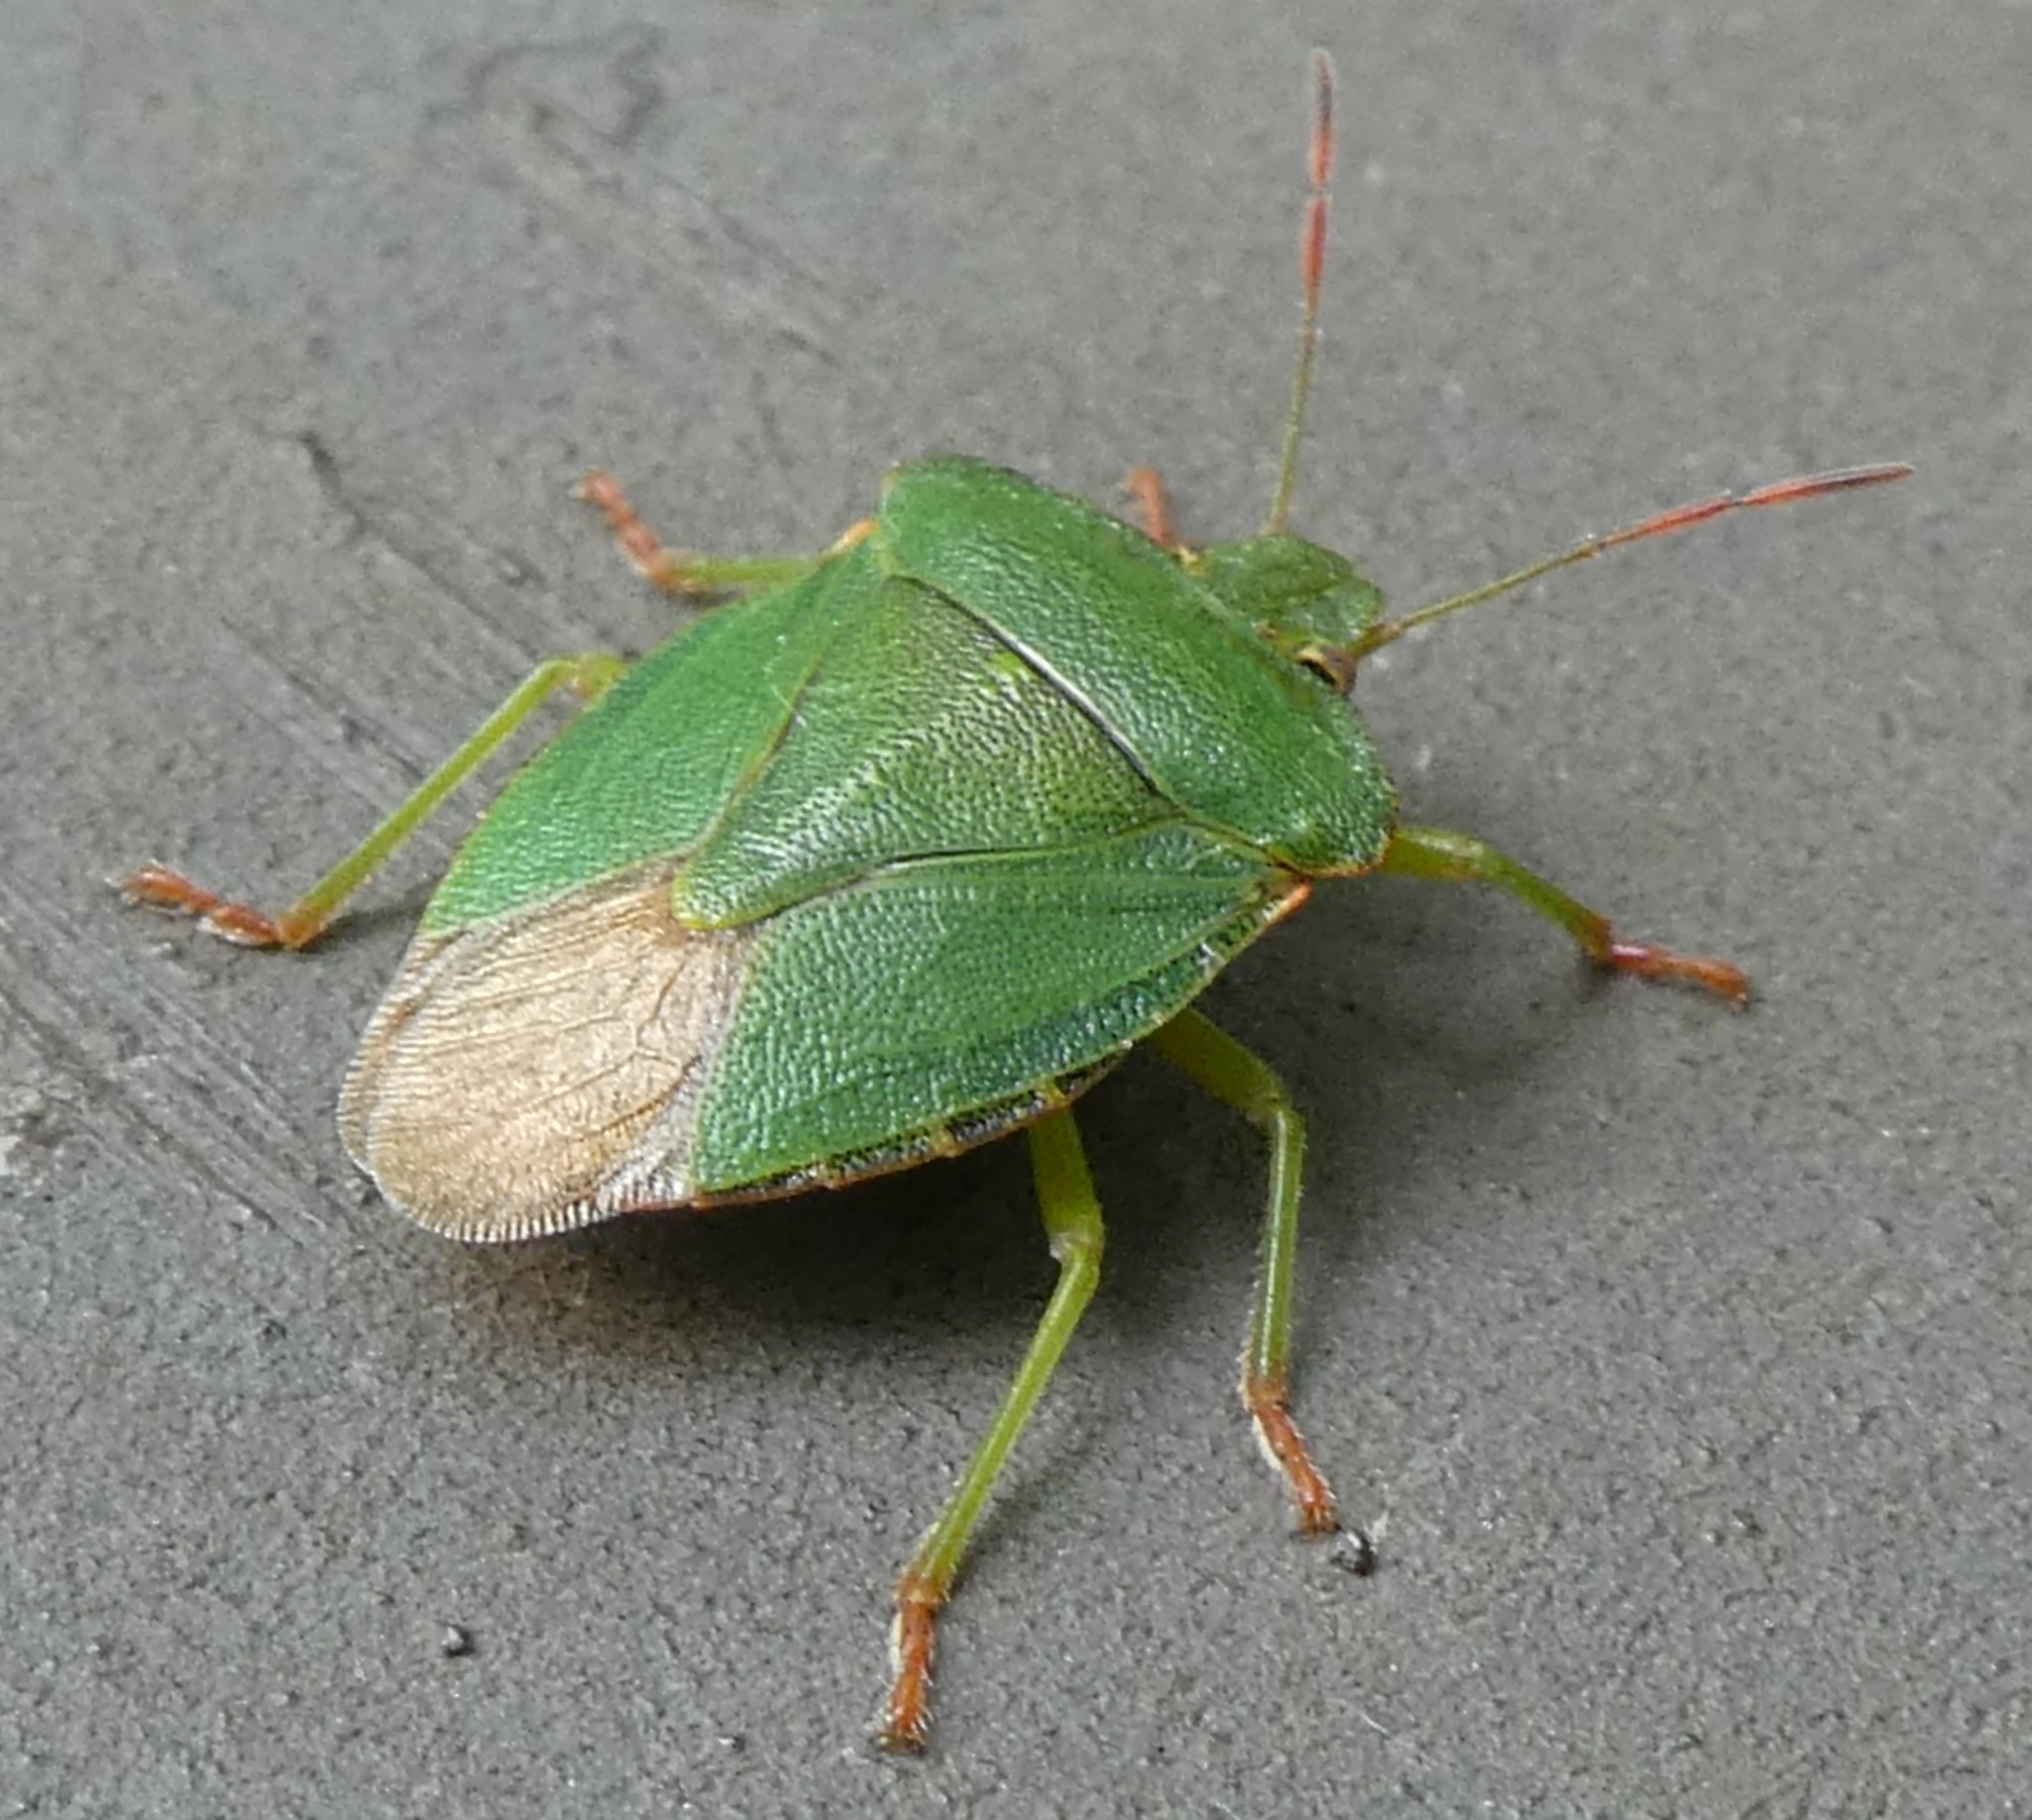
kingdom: Animalia
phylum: Arthropoda
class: Insecta
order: Hemiptera
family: Pentatomidae
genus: Palomena
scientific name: Palomena prasina
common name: Green shieldbug
